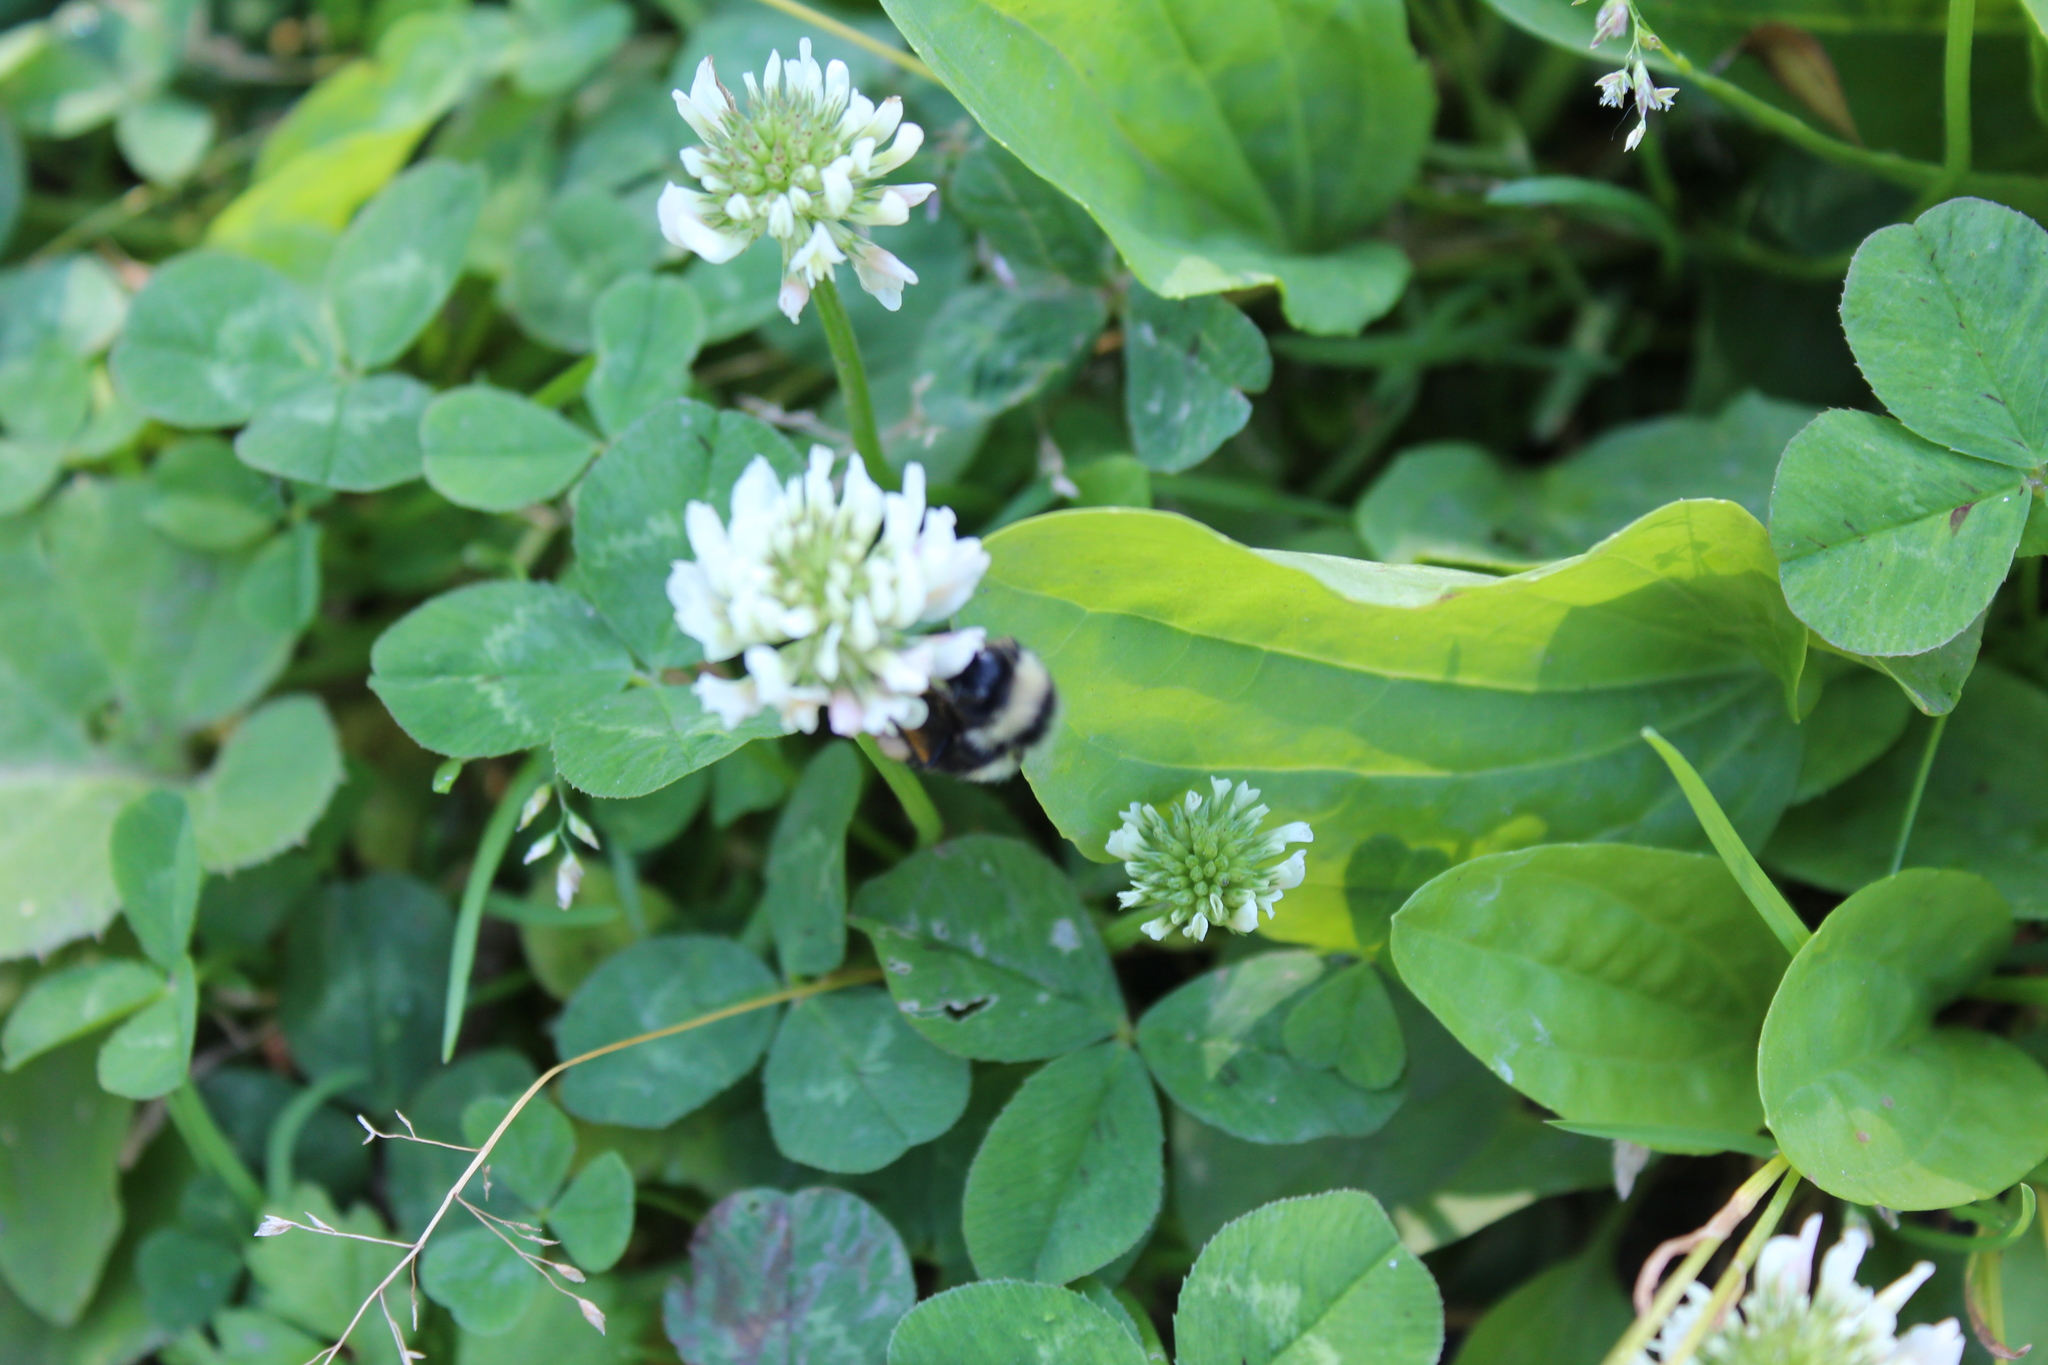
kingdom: Animalia
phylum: Arthropoda
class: Insecta
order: Hymenoptera
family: Apidae
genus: Bombus
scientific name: Bombus
